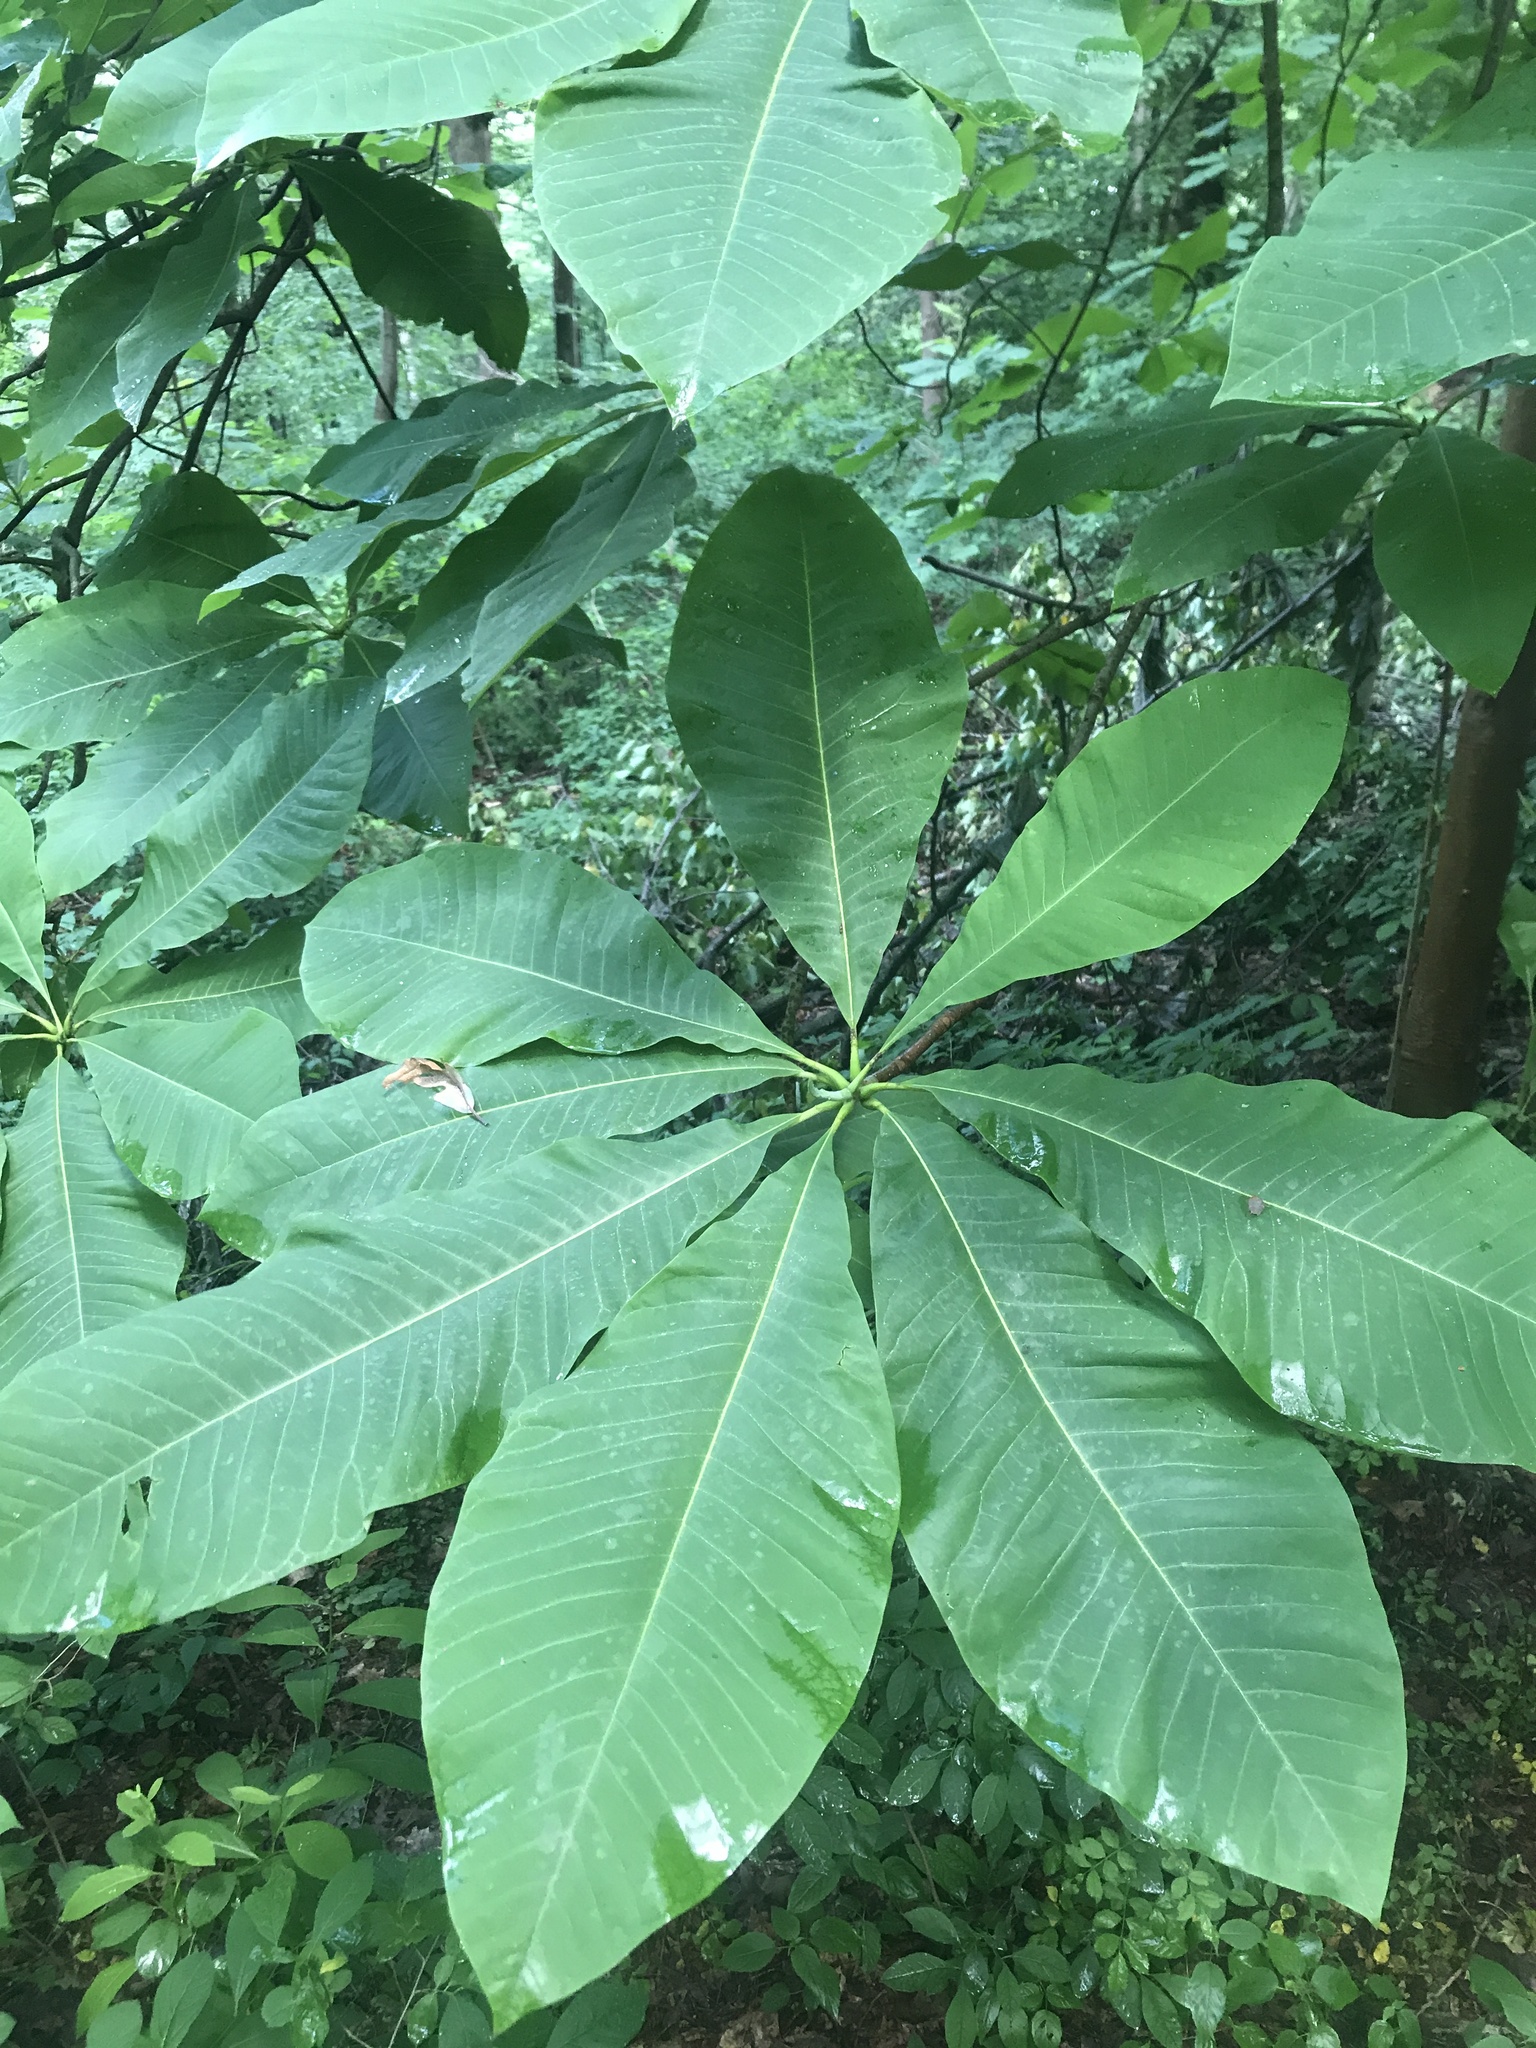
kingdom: Plantae
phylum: Tracheophyta
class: Magnoliopsida
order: Magnoliales
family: Magnoliaceae
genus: Magnolia
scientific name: Magnolia tripetala
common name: Umbrella magnolia
